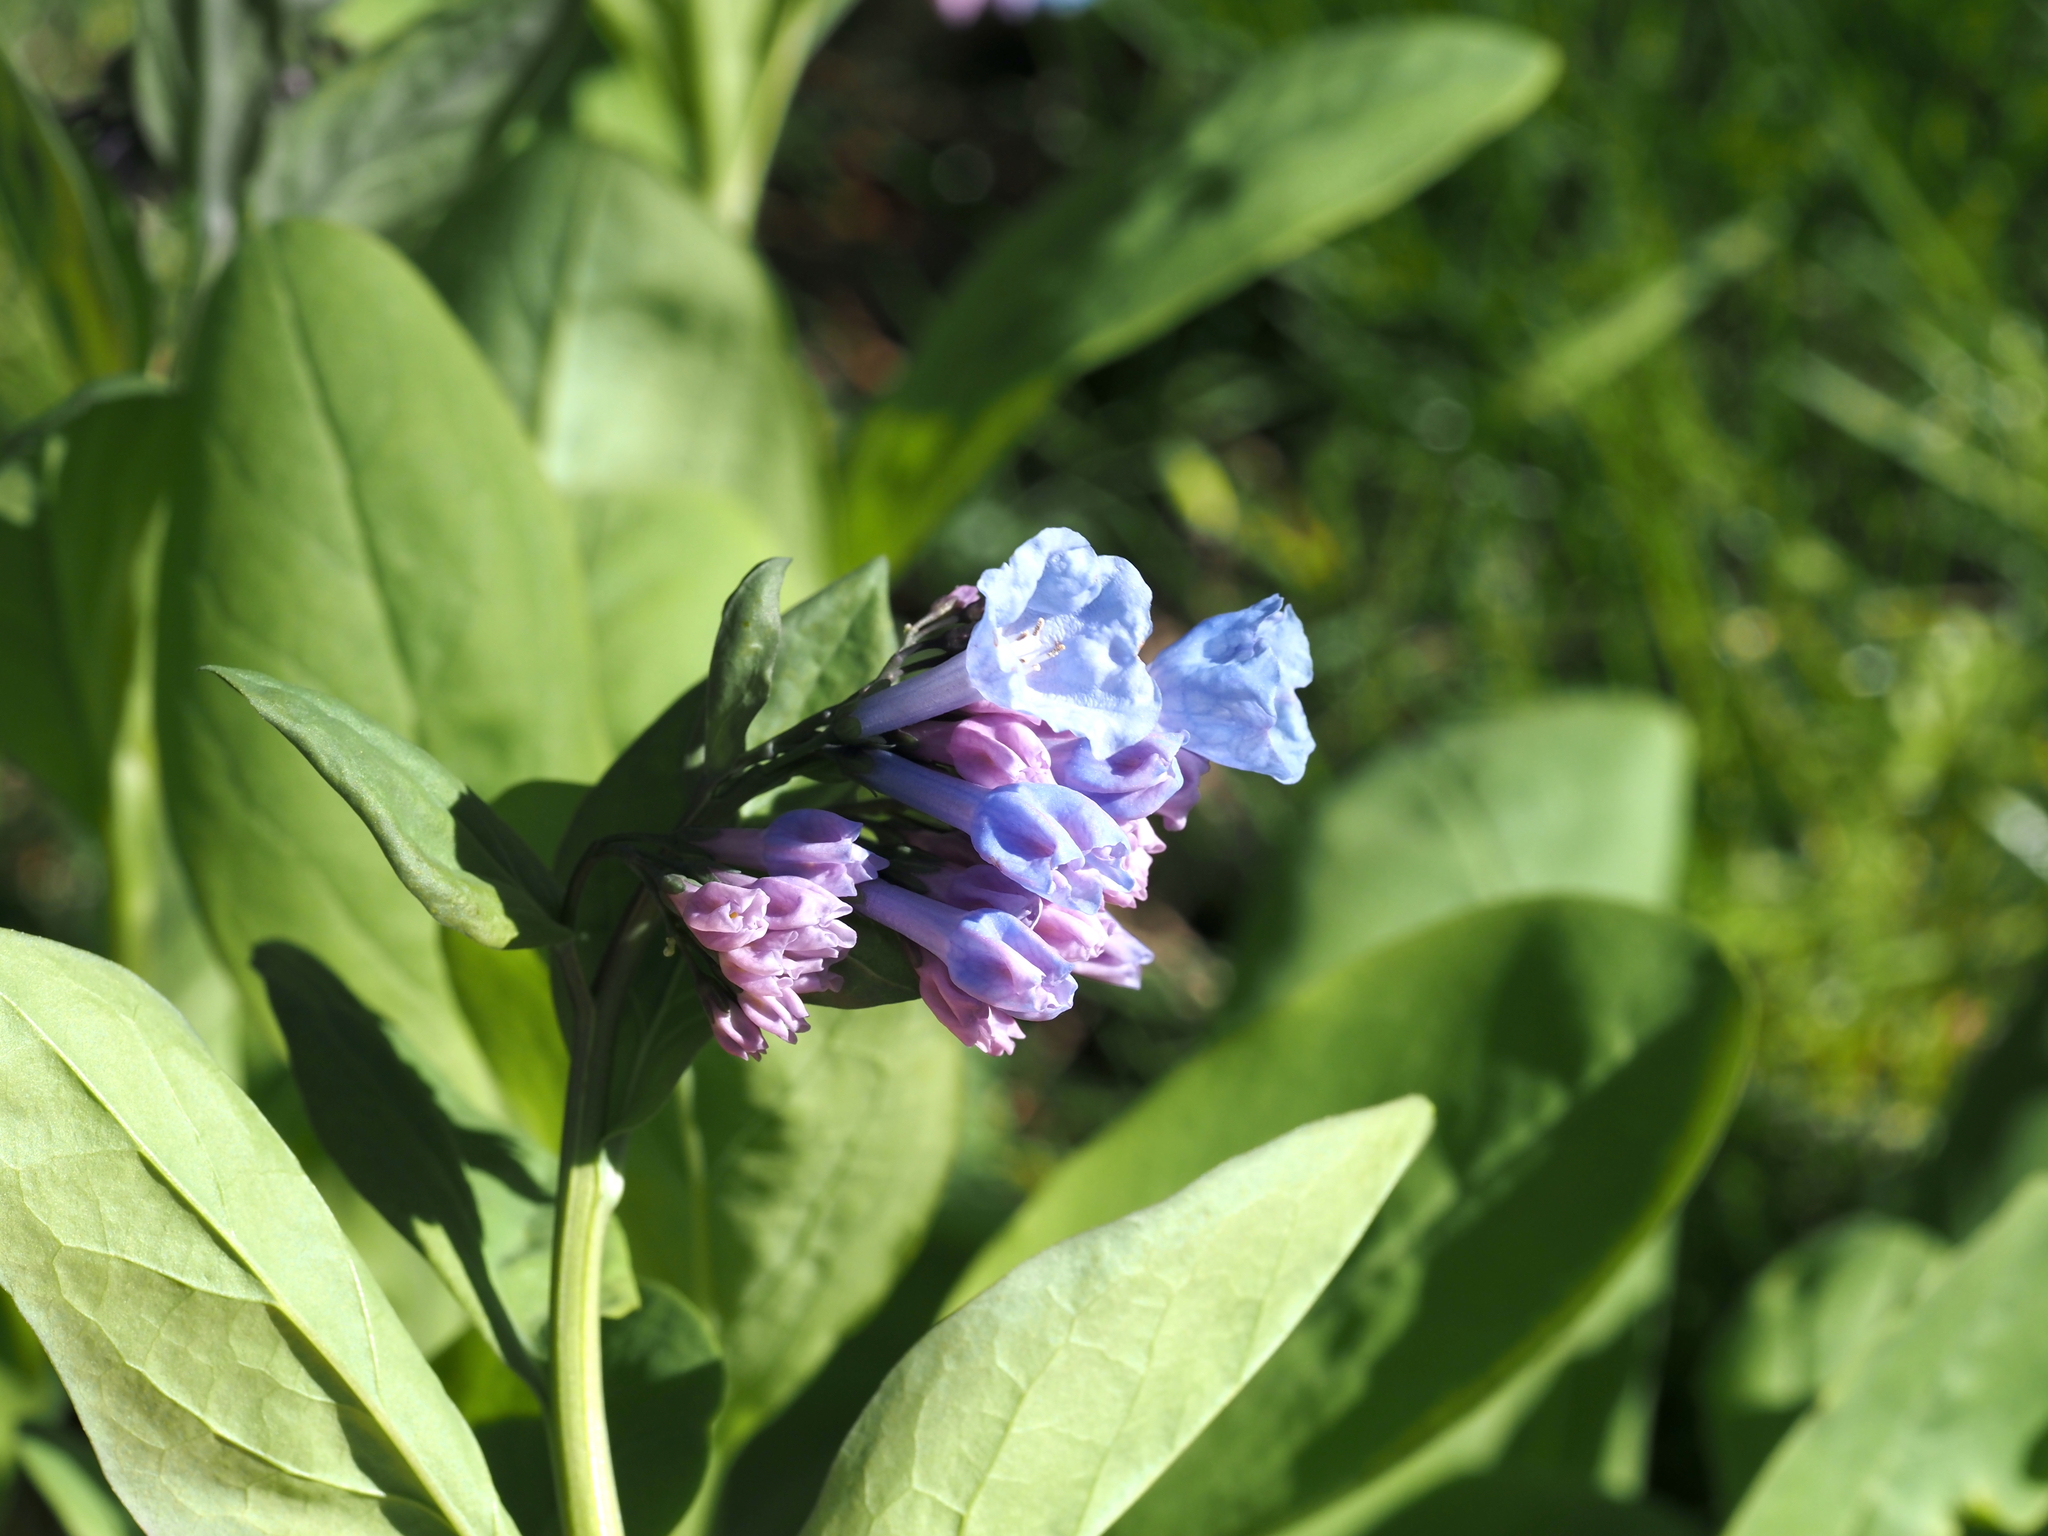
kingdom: Plantae
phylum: Tracheophyta
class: Magnoliopsida
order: Boraginales
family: Boraginaceae
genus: Mertensia
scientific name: Mertensia virginica
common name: Virginia bluebells
